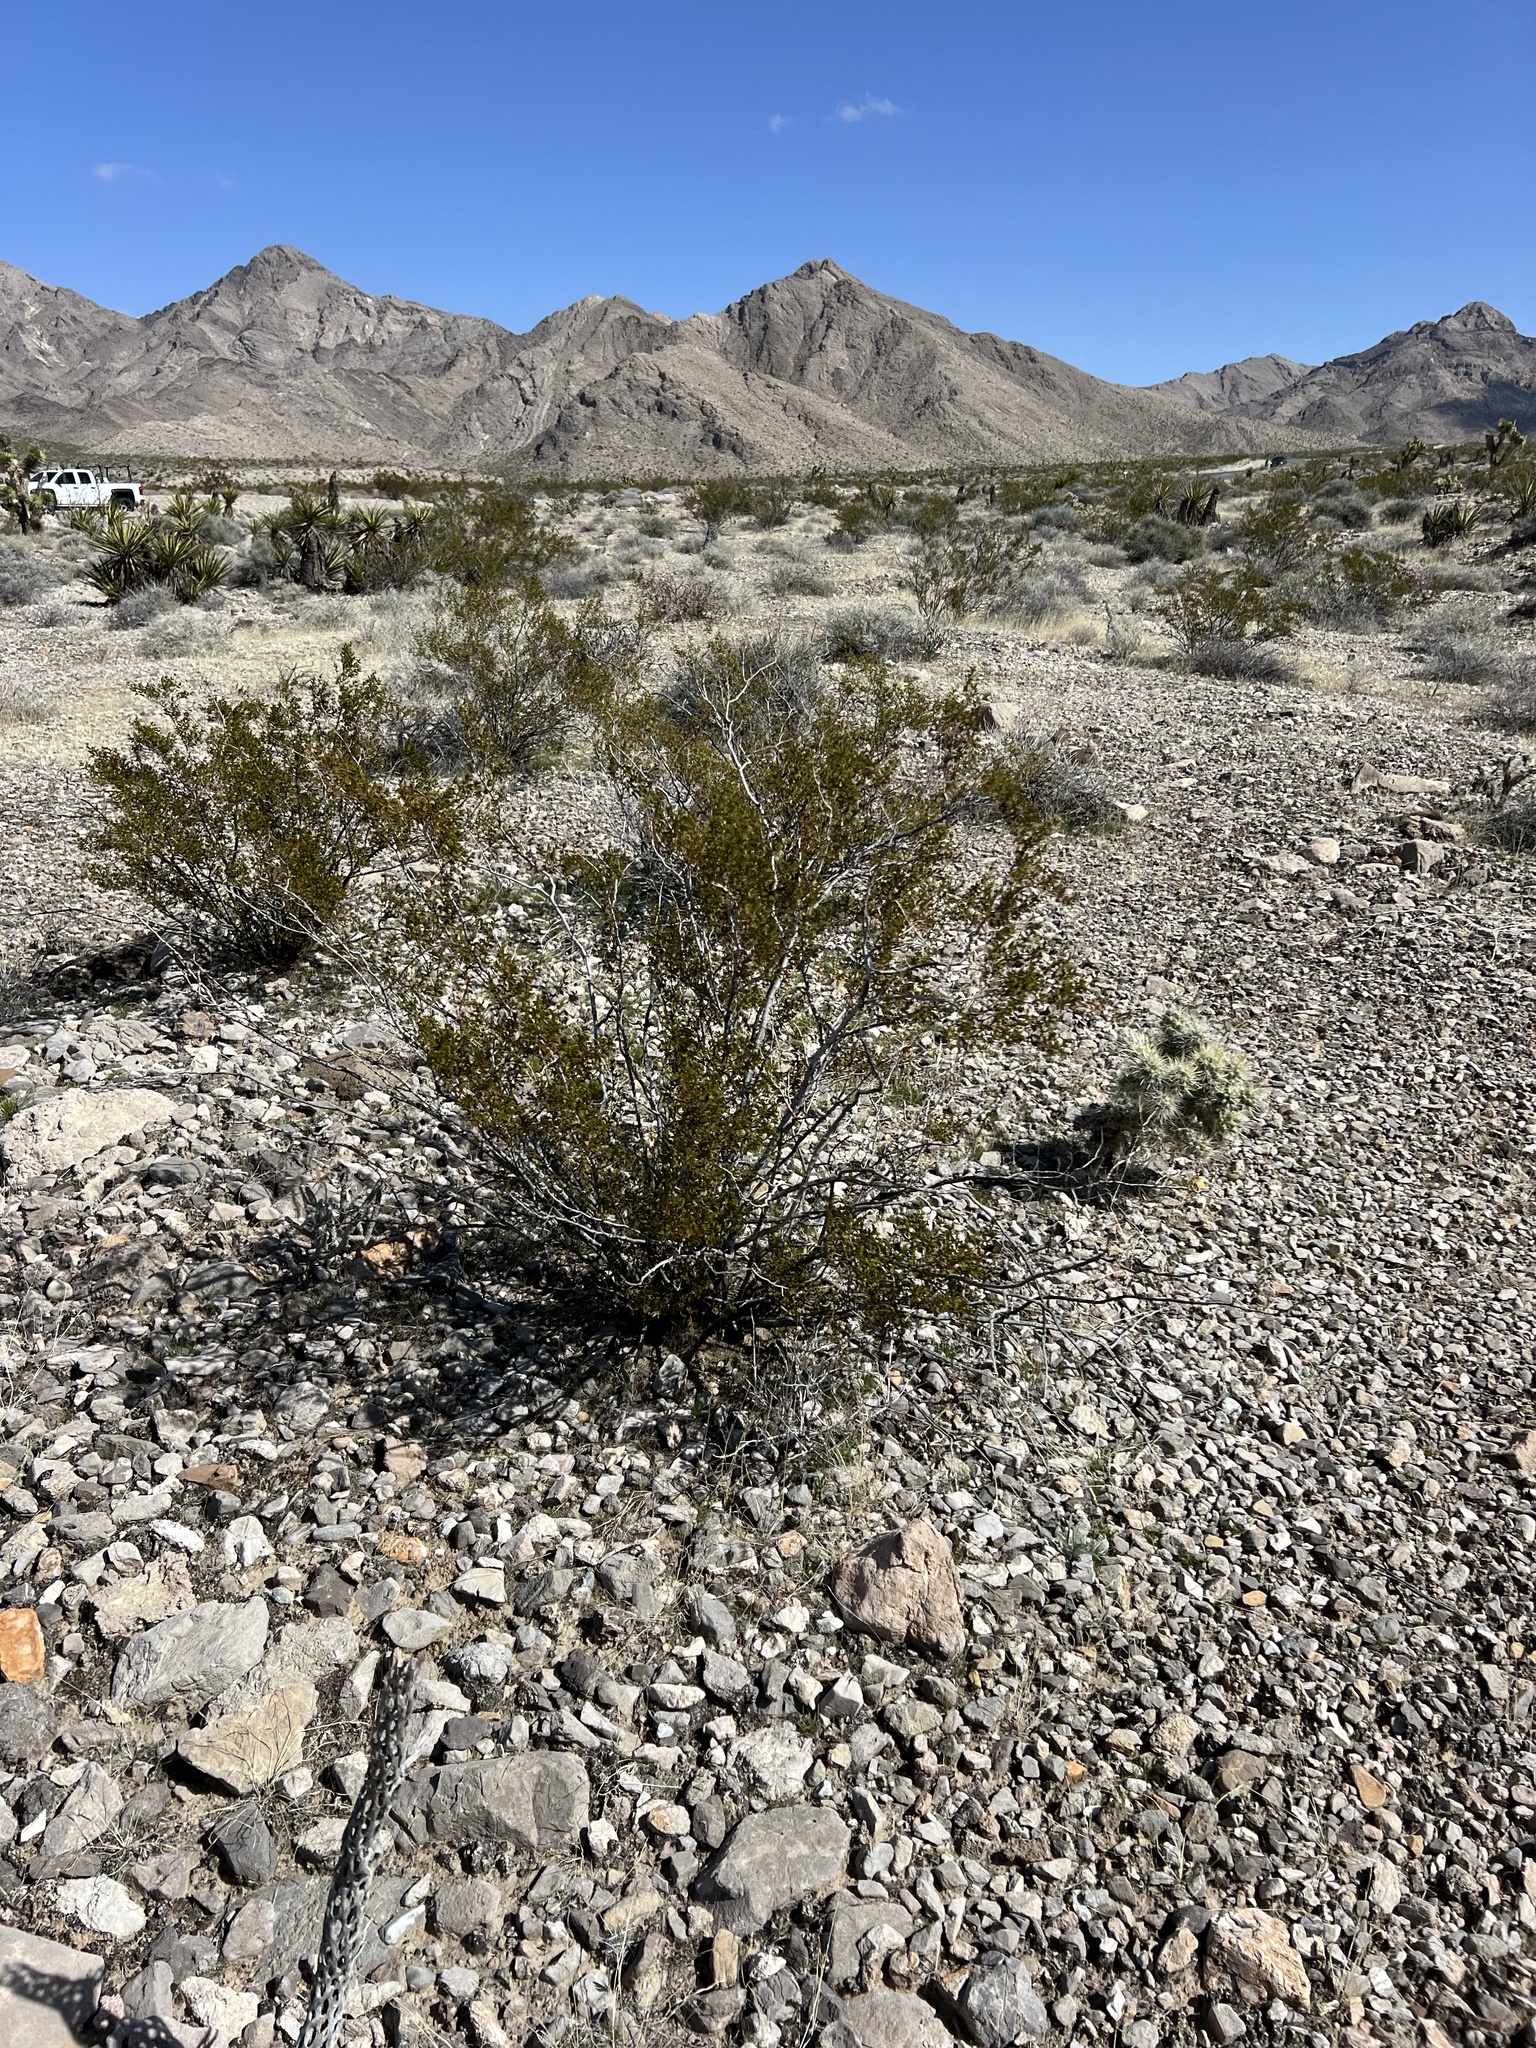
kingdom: Plantae
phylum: Tracheophyta
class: Magnoliopsida
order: Zygophyllales
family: Zygophyllaceae
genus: Larrea
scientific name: Larrea tridentata
